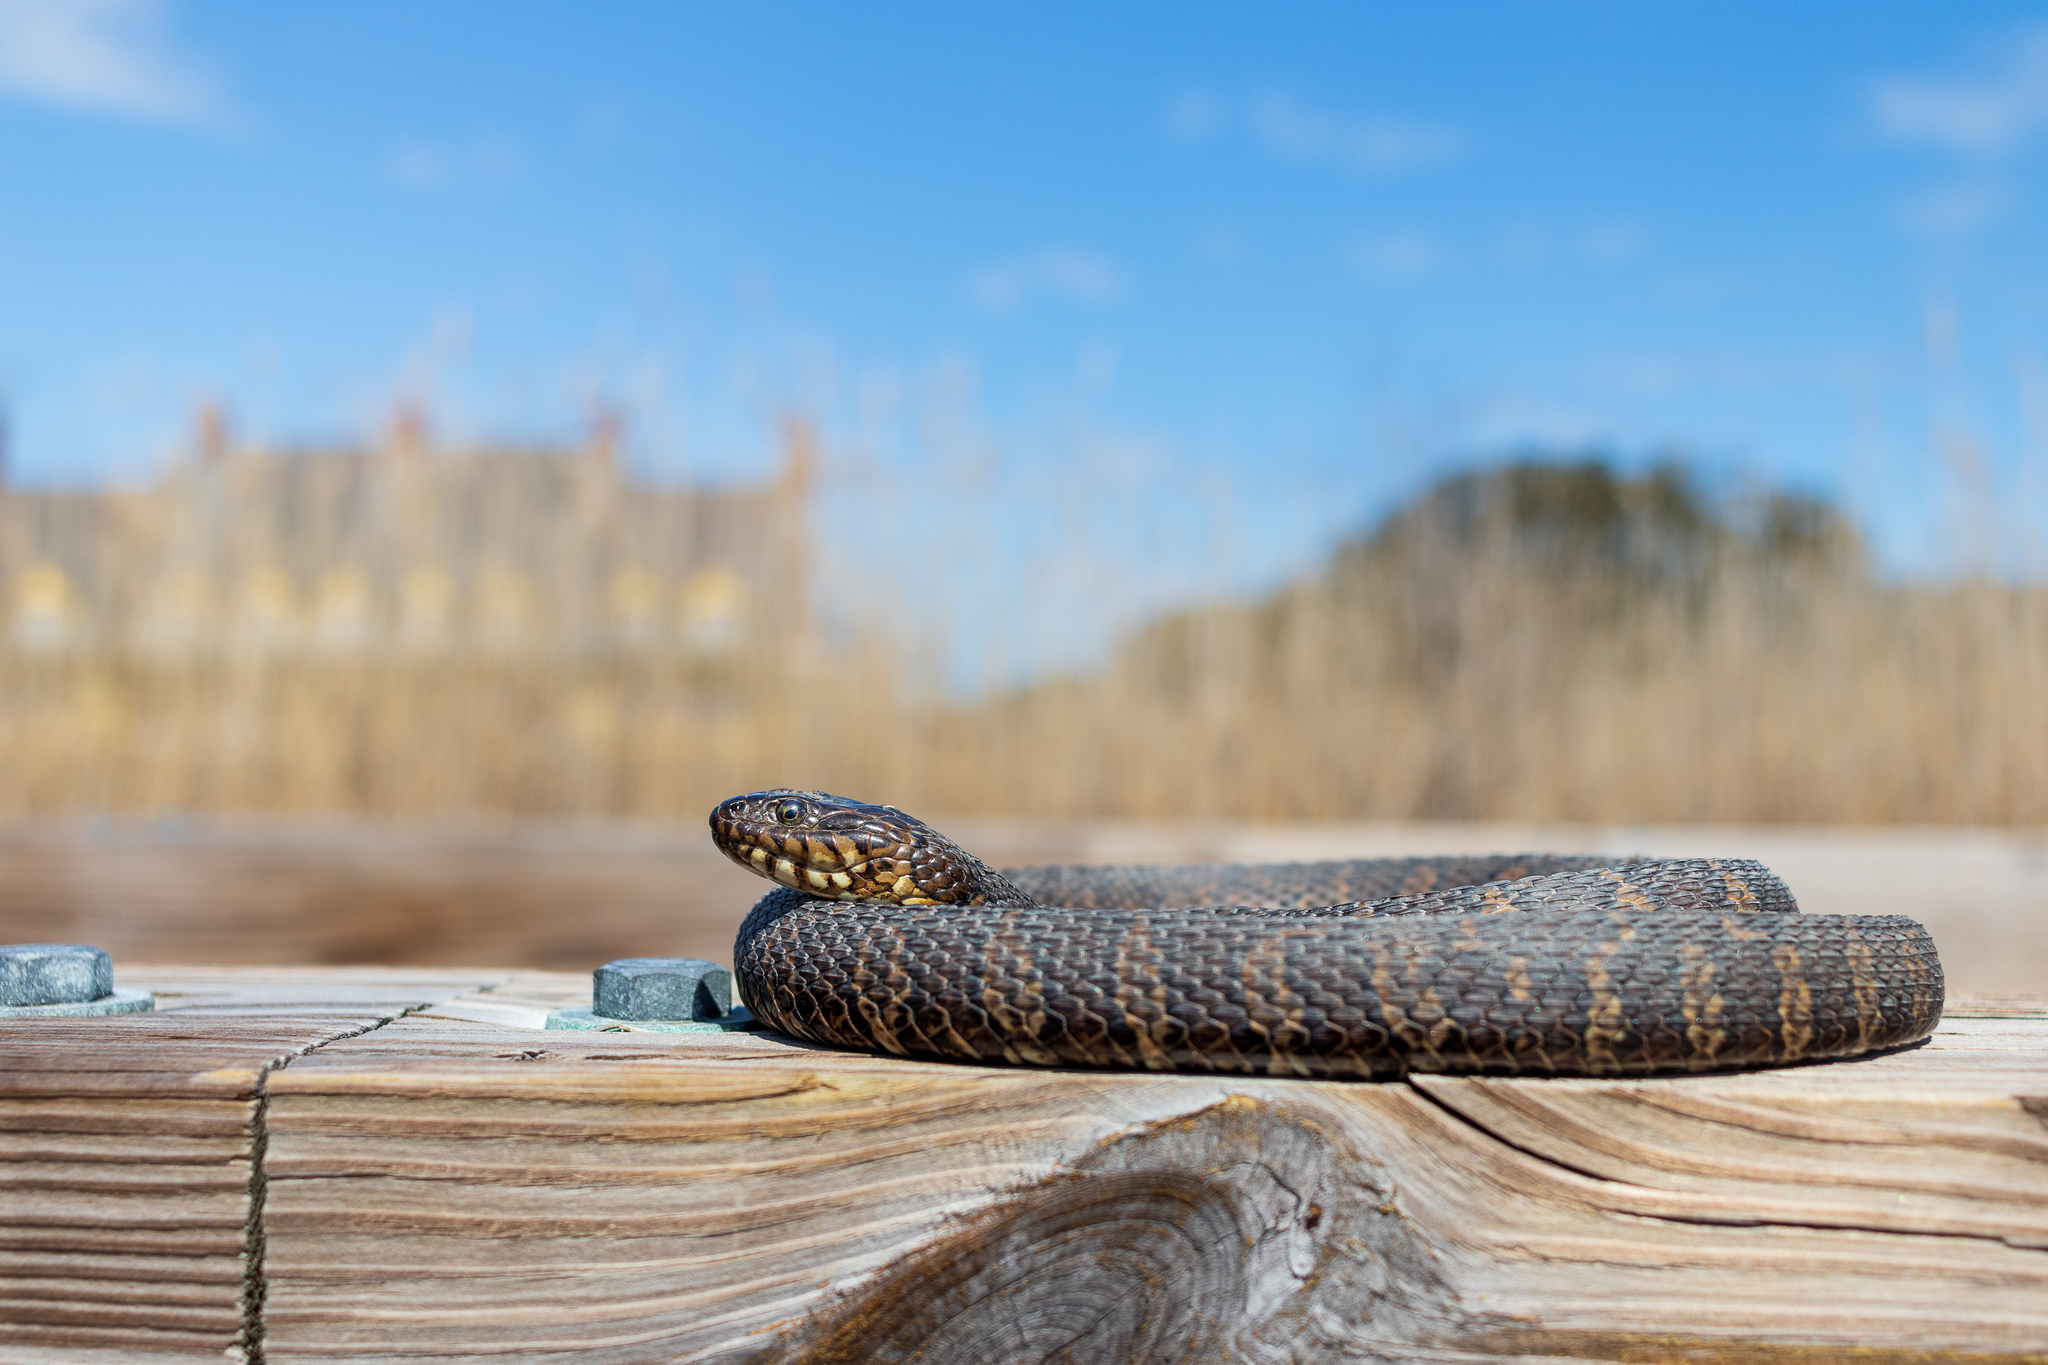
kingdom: Animalia
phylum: Chordata
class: Squamata
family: Colubridae
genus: Nerodia
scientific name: Nerodia sipedon
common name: Northern water snake
